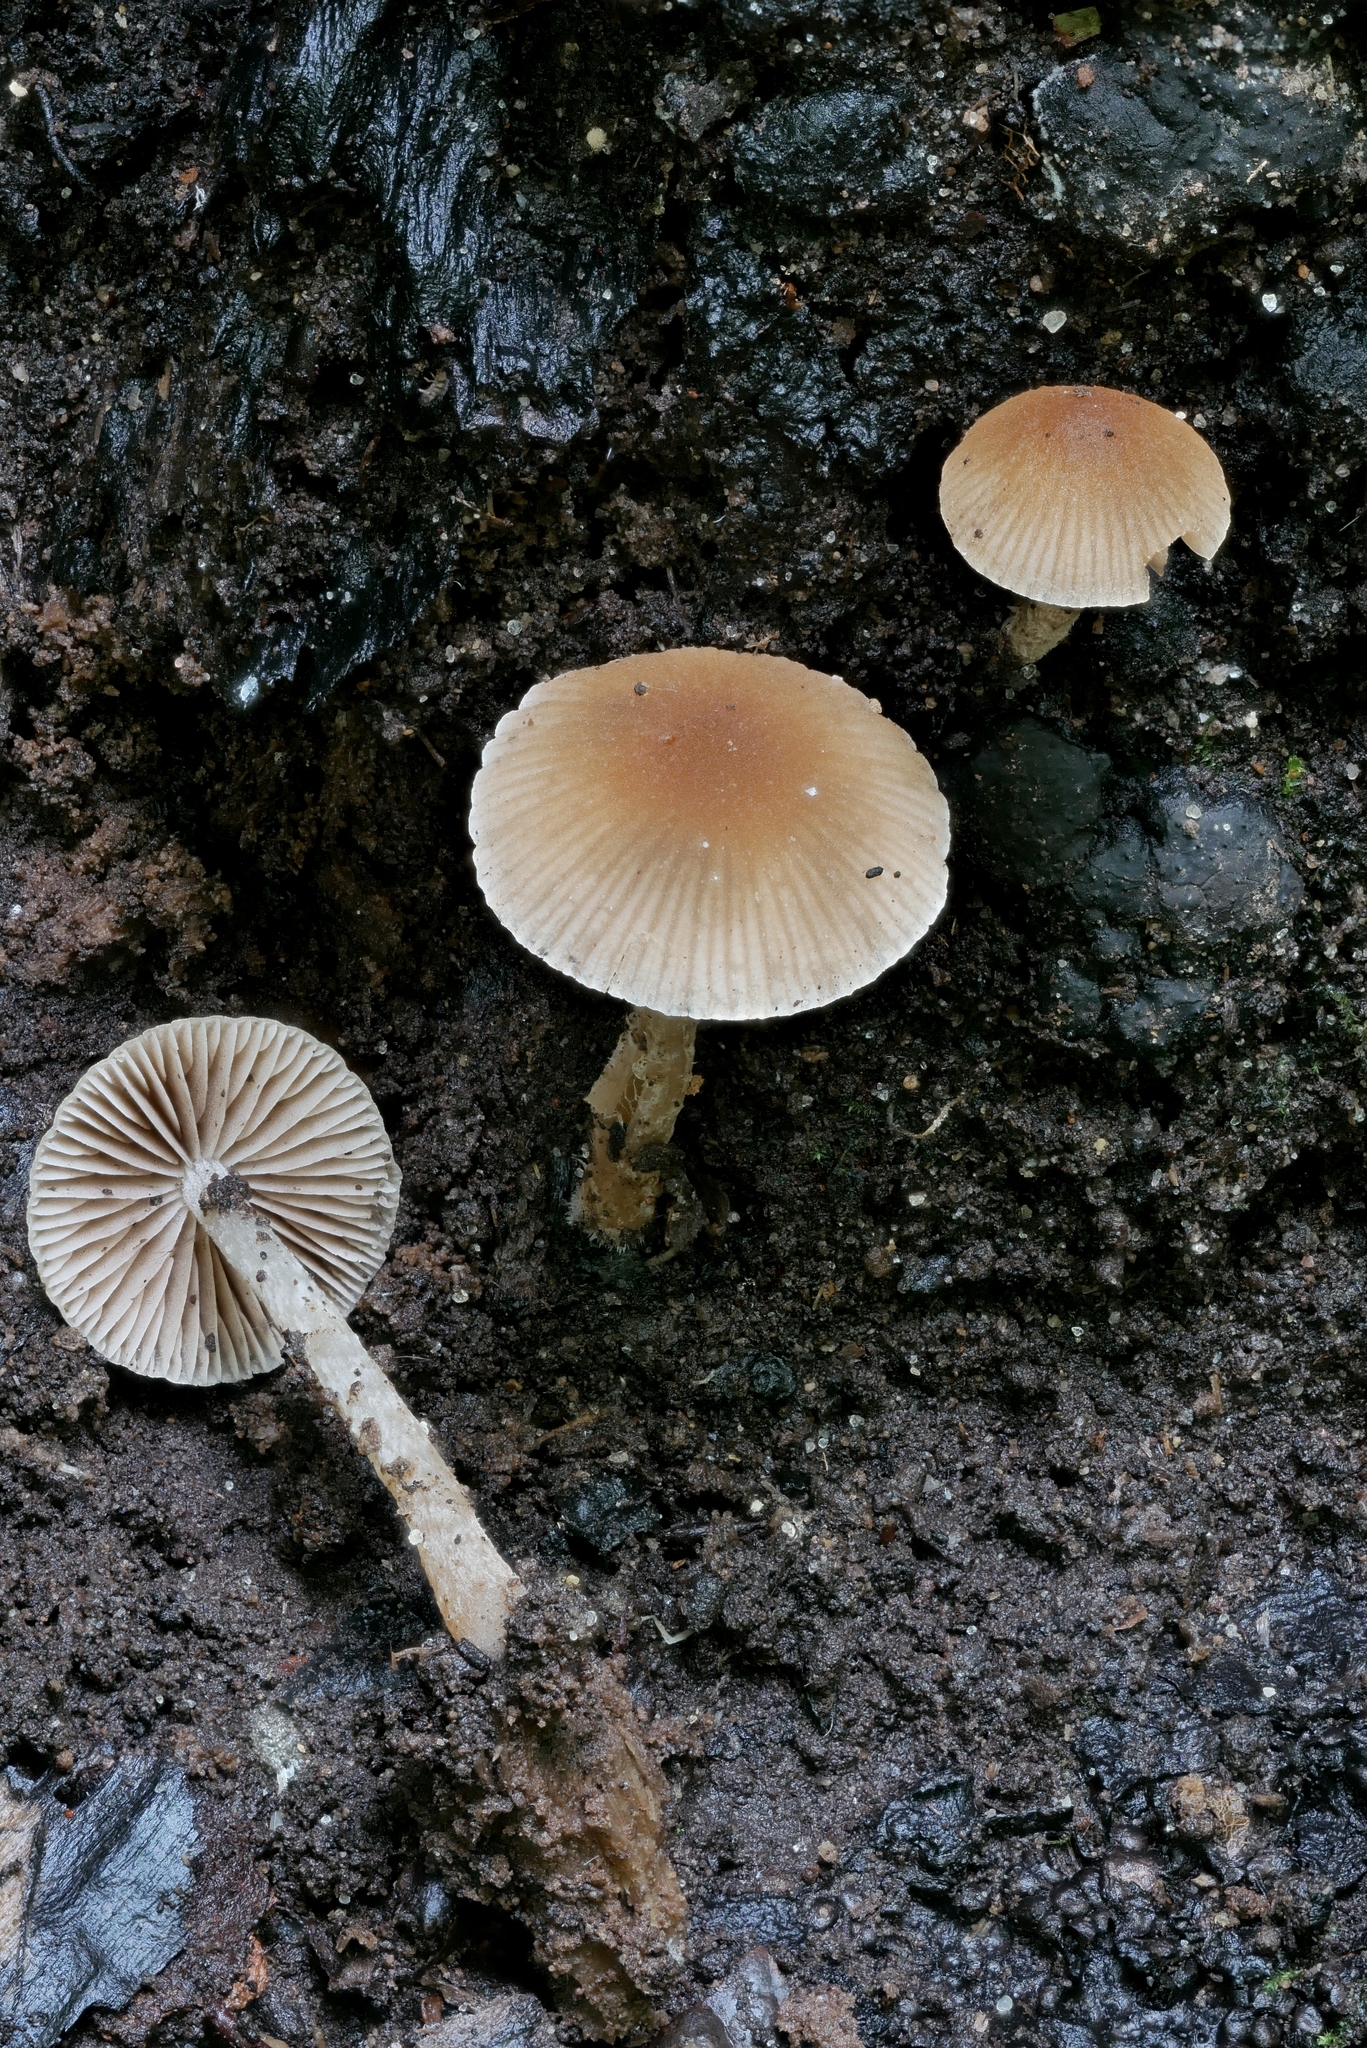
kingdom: Fungi
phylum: Basidiomycota
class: Agaricomycetes
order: Agaricales
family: Psathyrellaceae
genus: Psathyrella
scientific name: Psathyrella psammophila
